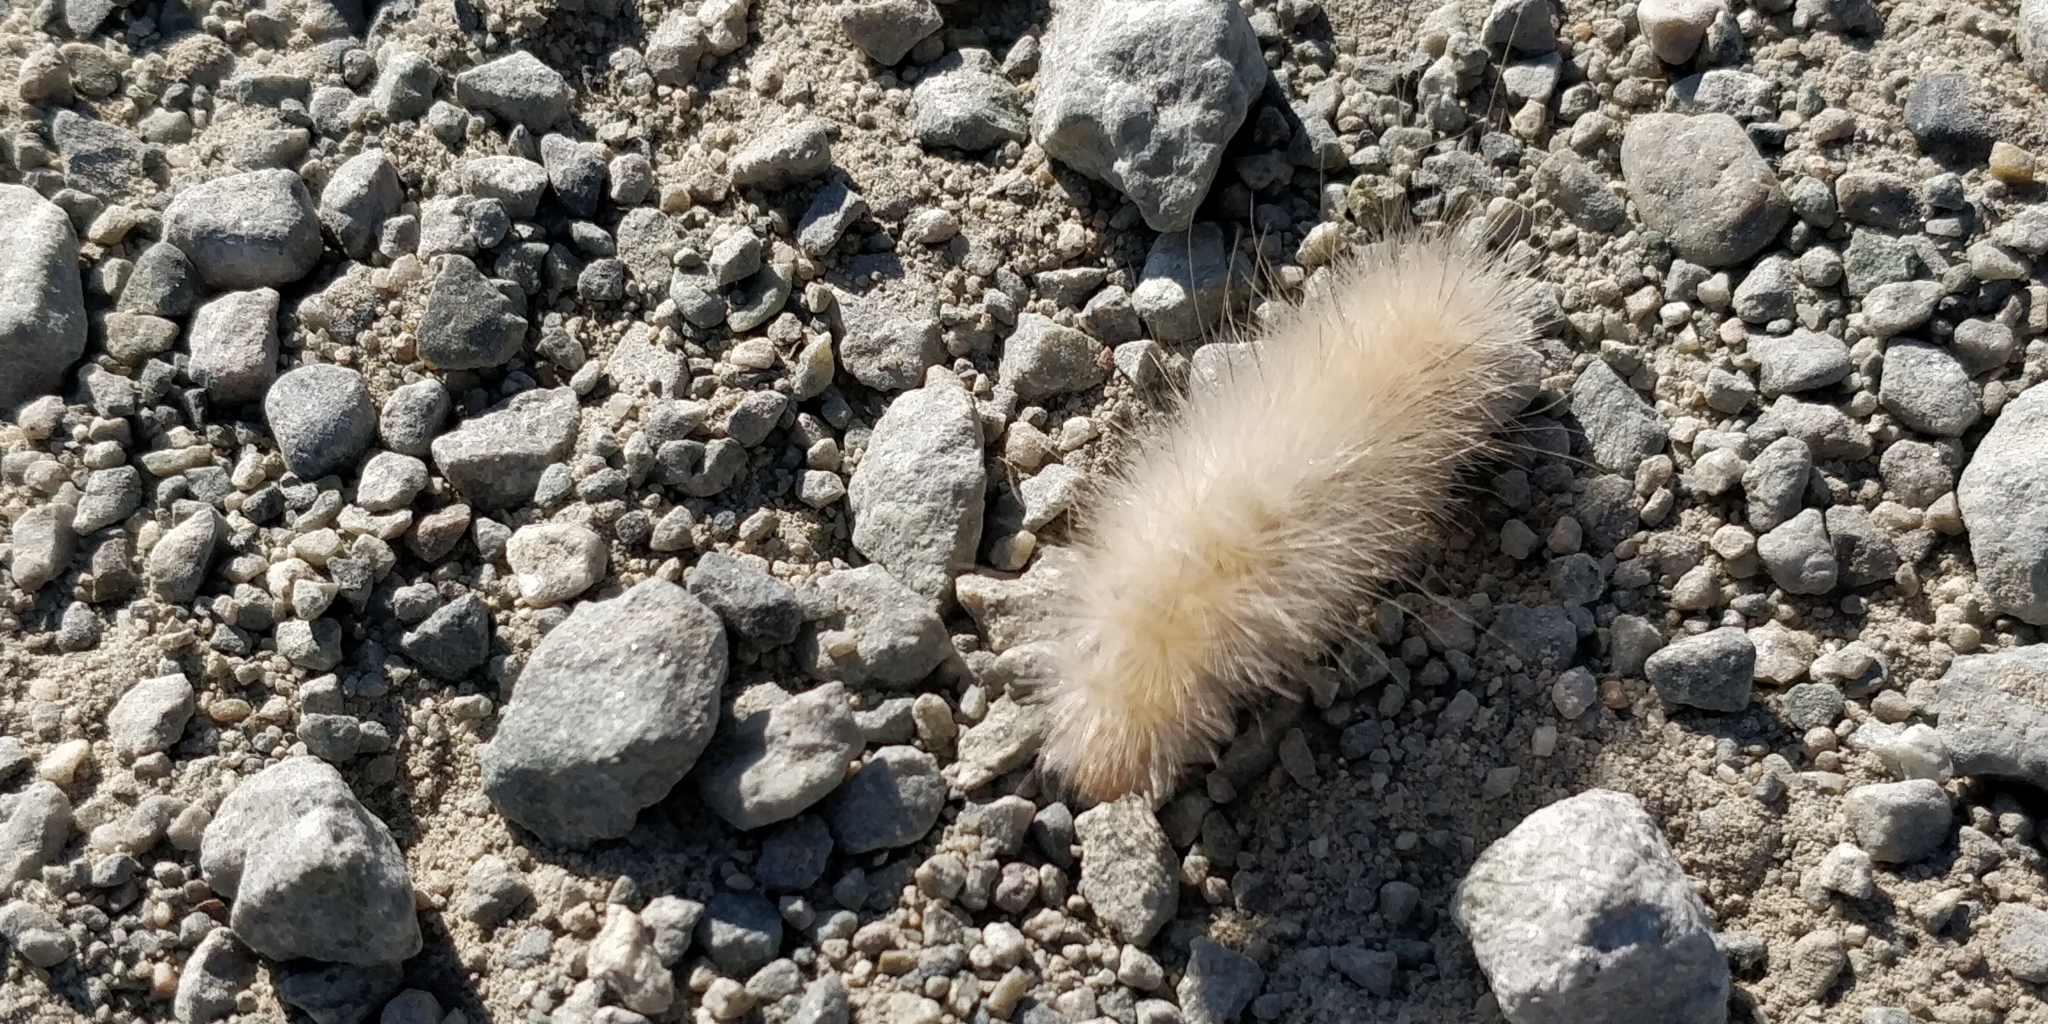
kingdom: Animalia
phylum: Arthropoda
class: Insecta
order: Lepidoptera
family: Erebidae
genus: Spilosoma
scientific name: Spilosoma virginica
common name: Virginia tiger moth
